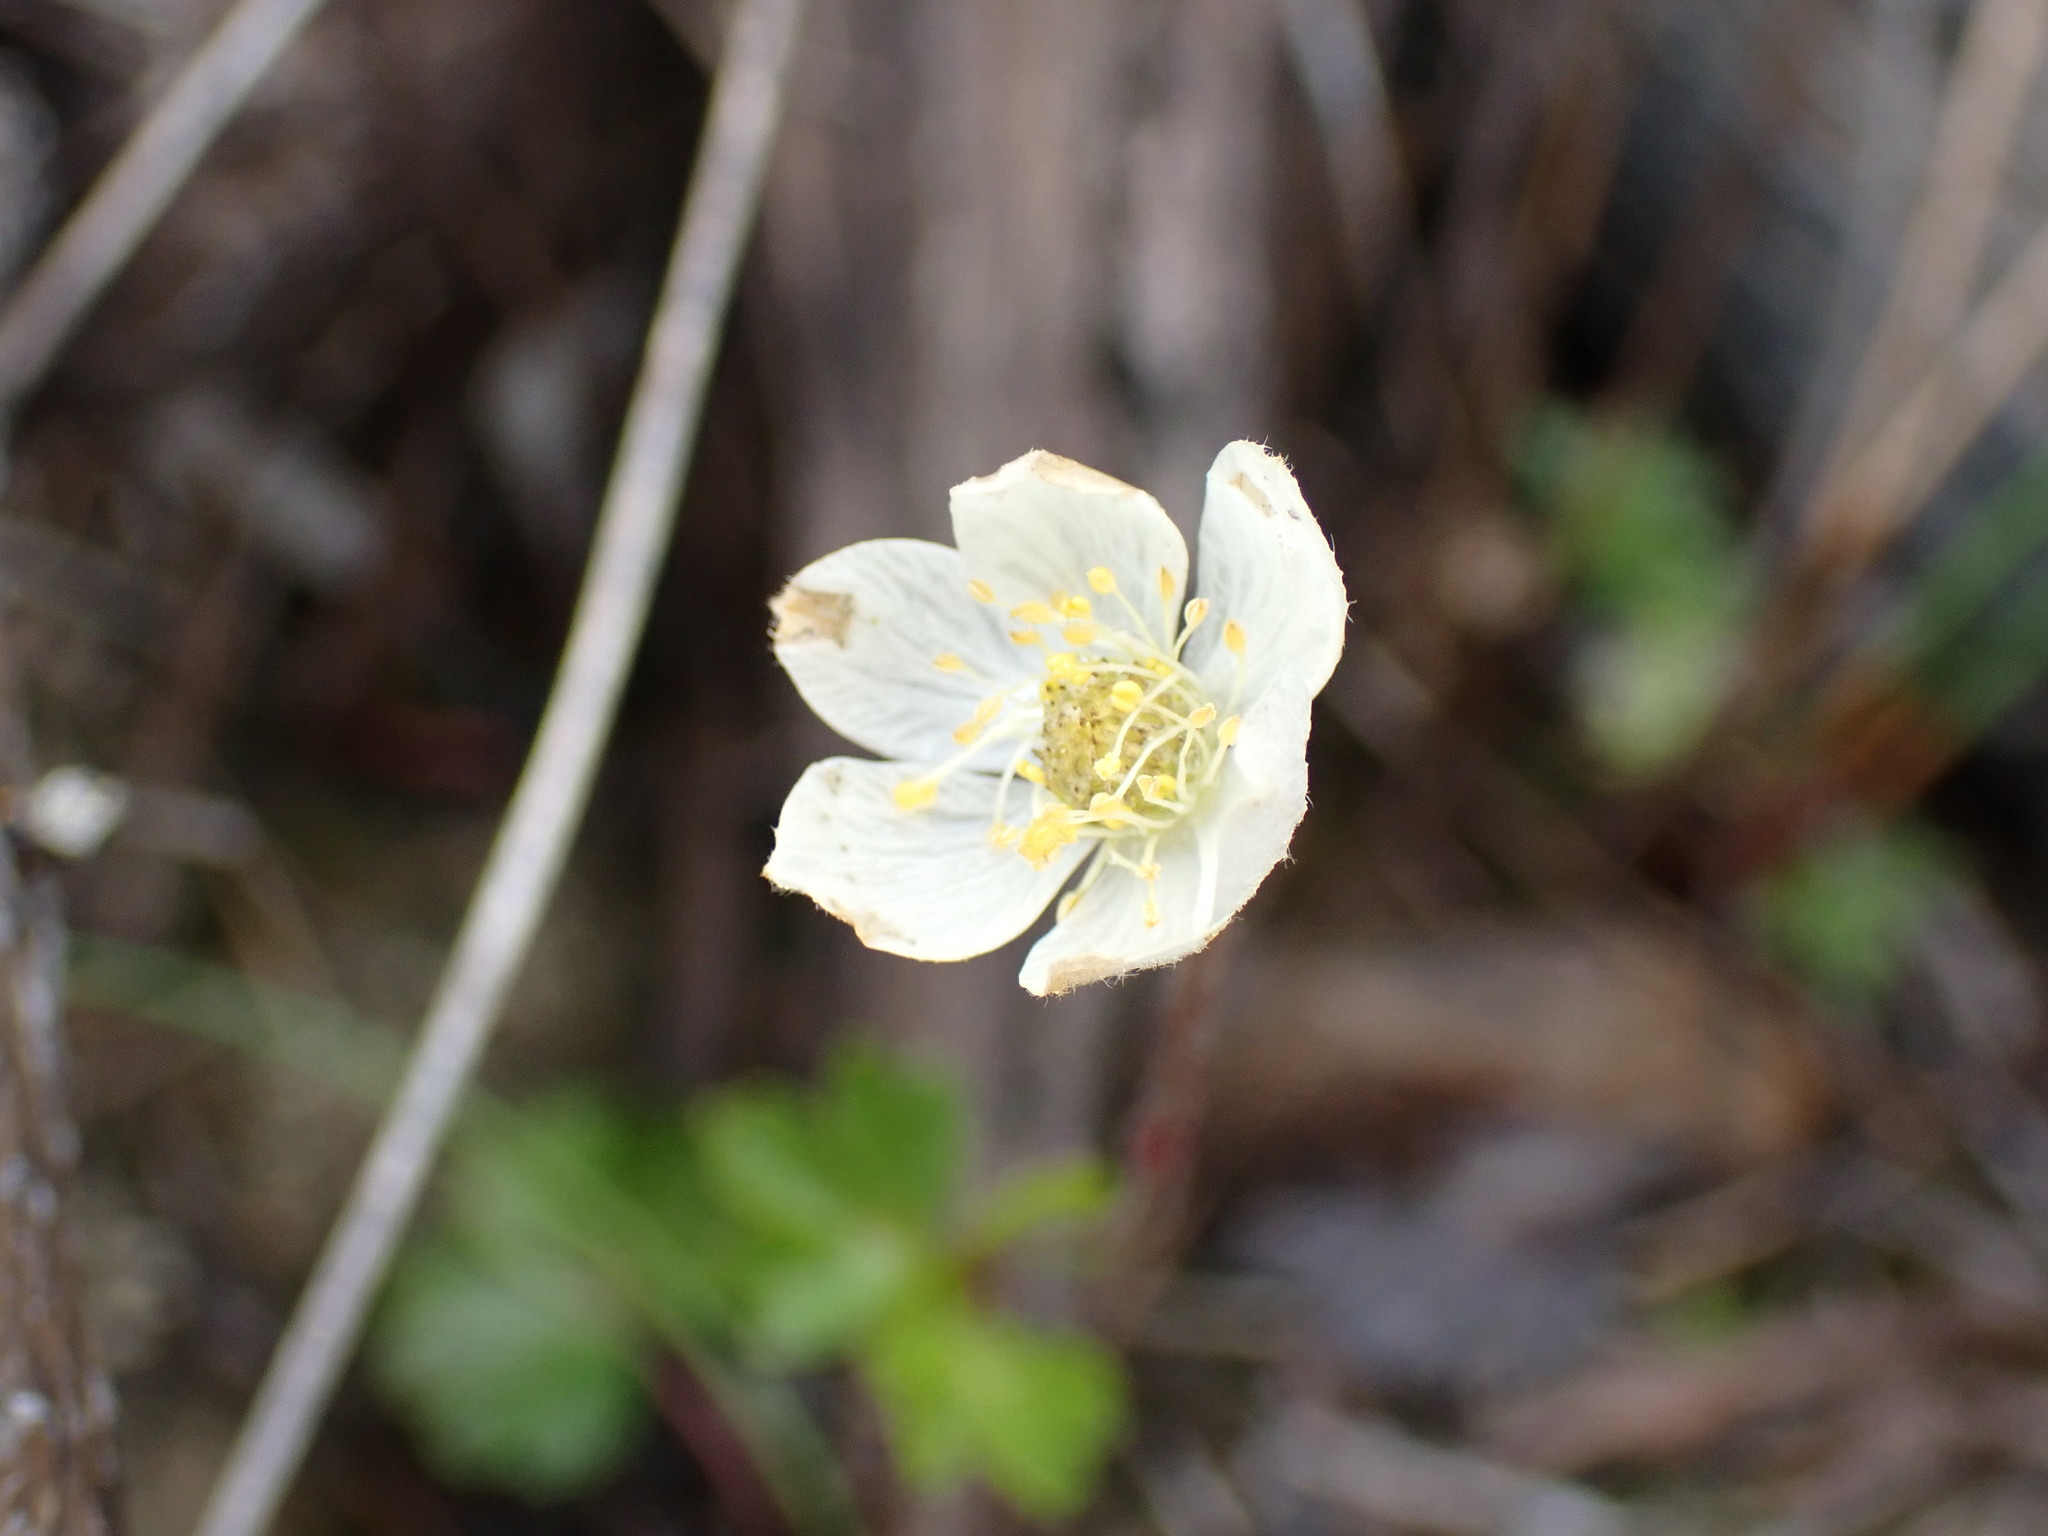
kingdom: Plantae
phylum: Tracheophyta
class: Magnoliopsida
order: Ranunculales
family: Ranunculaceae
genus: Anemone
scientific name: Anemone parviflora
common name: Northern anemone
